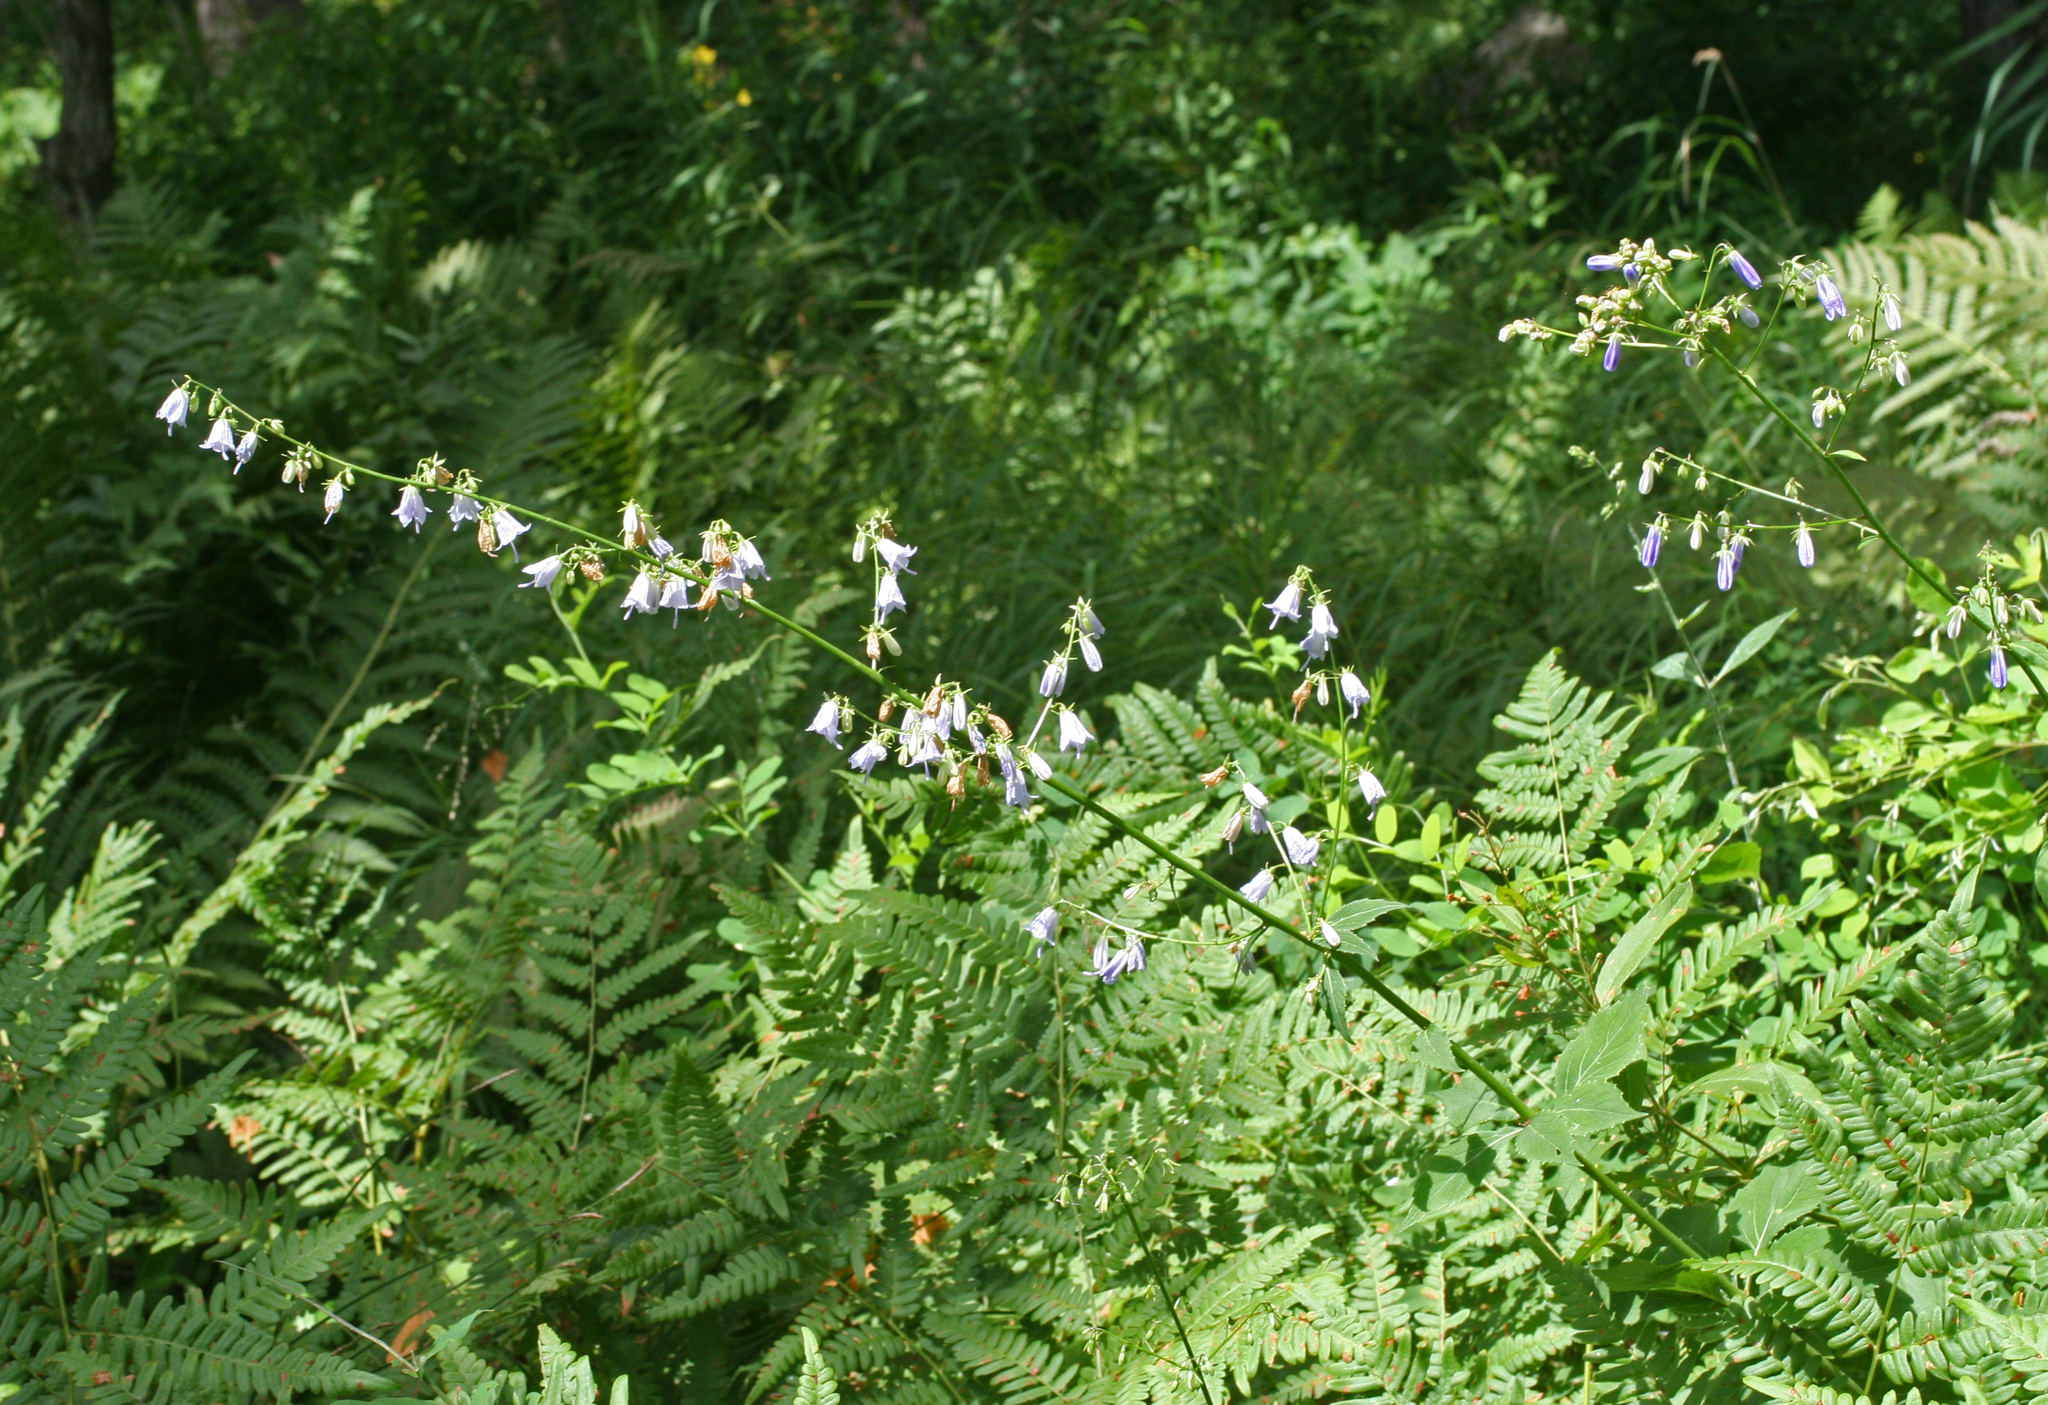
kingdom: Plantae
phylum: Tracheophyta
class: Magnoliopsida
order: Asterales
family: Campanulaceae
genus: Adenophora
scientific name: Adenophora pereskiifolia
